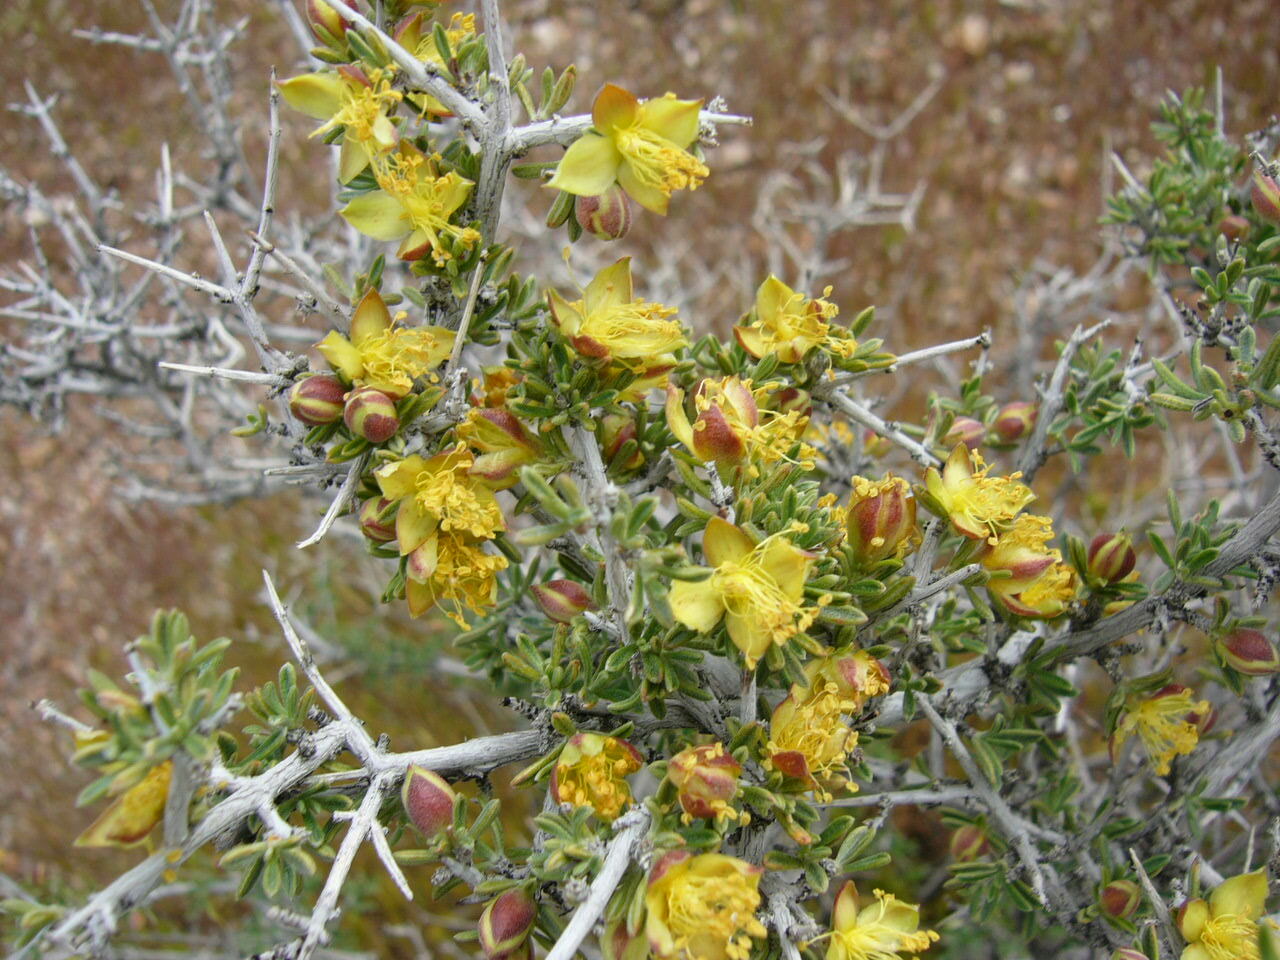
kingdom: Plantae
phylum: Tracheophyta
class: Magnoliopsida
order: Rosales
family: Rosaceae
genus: Coleogyne
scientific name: Coleogyne ramosissima
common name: Blackbrush
